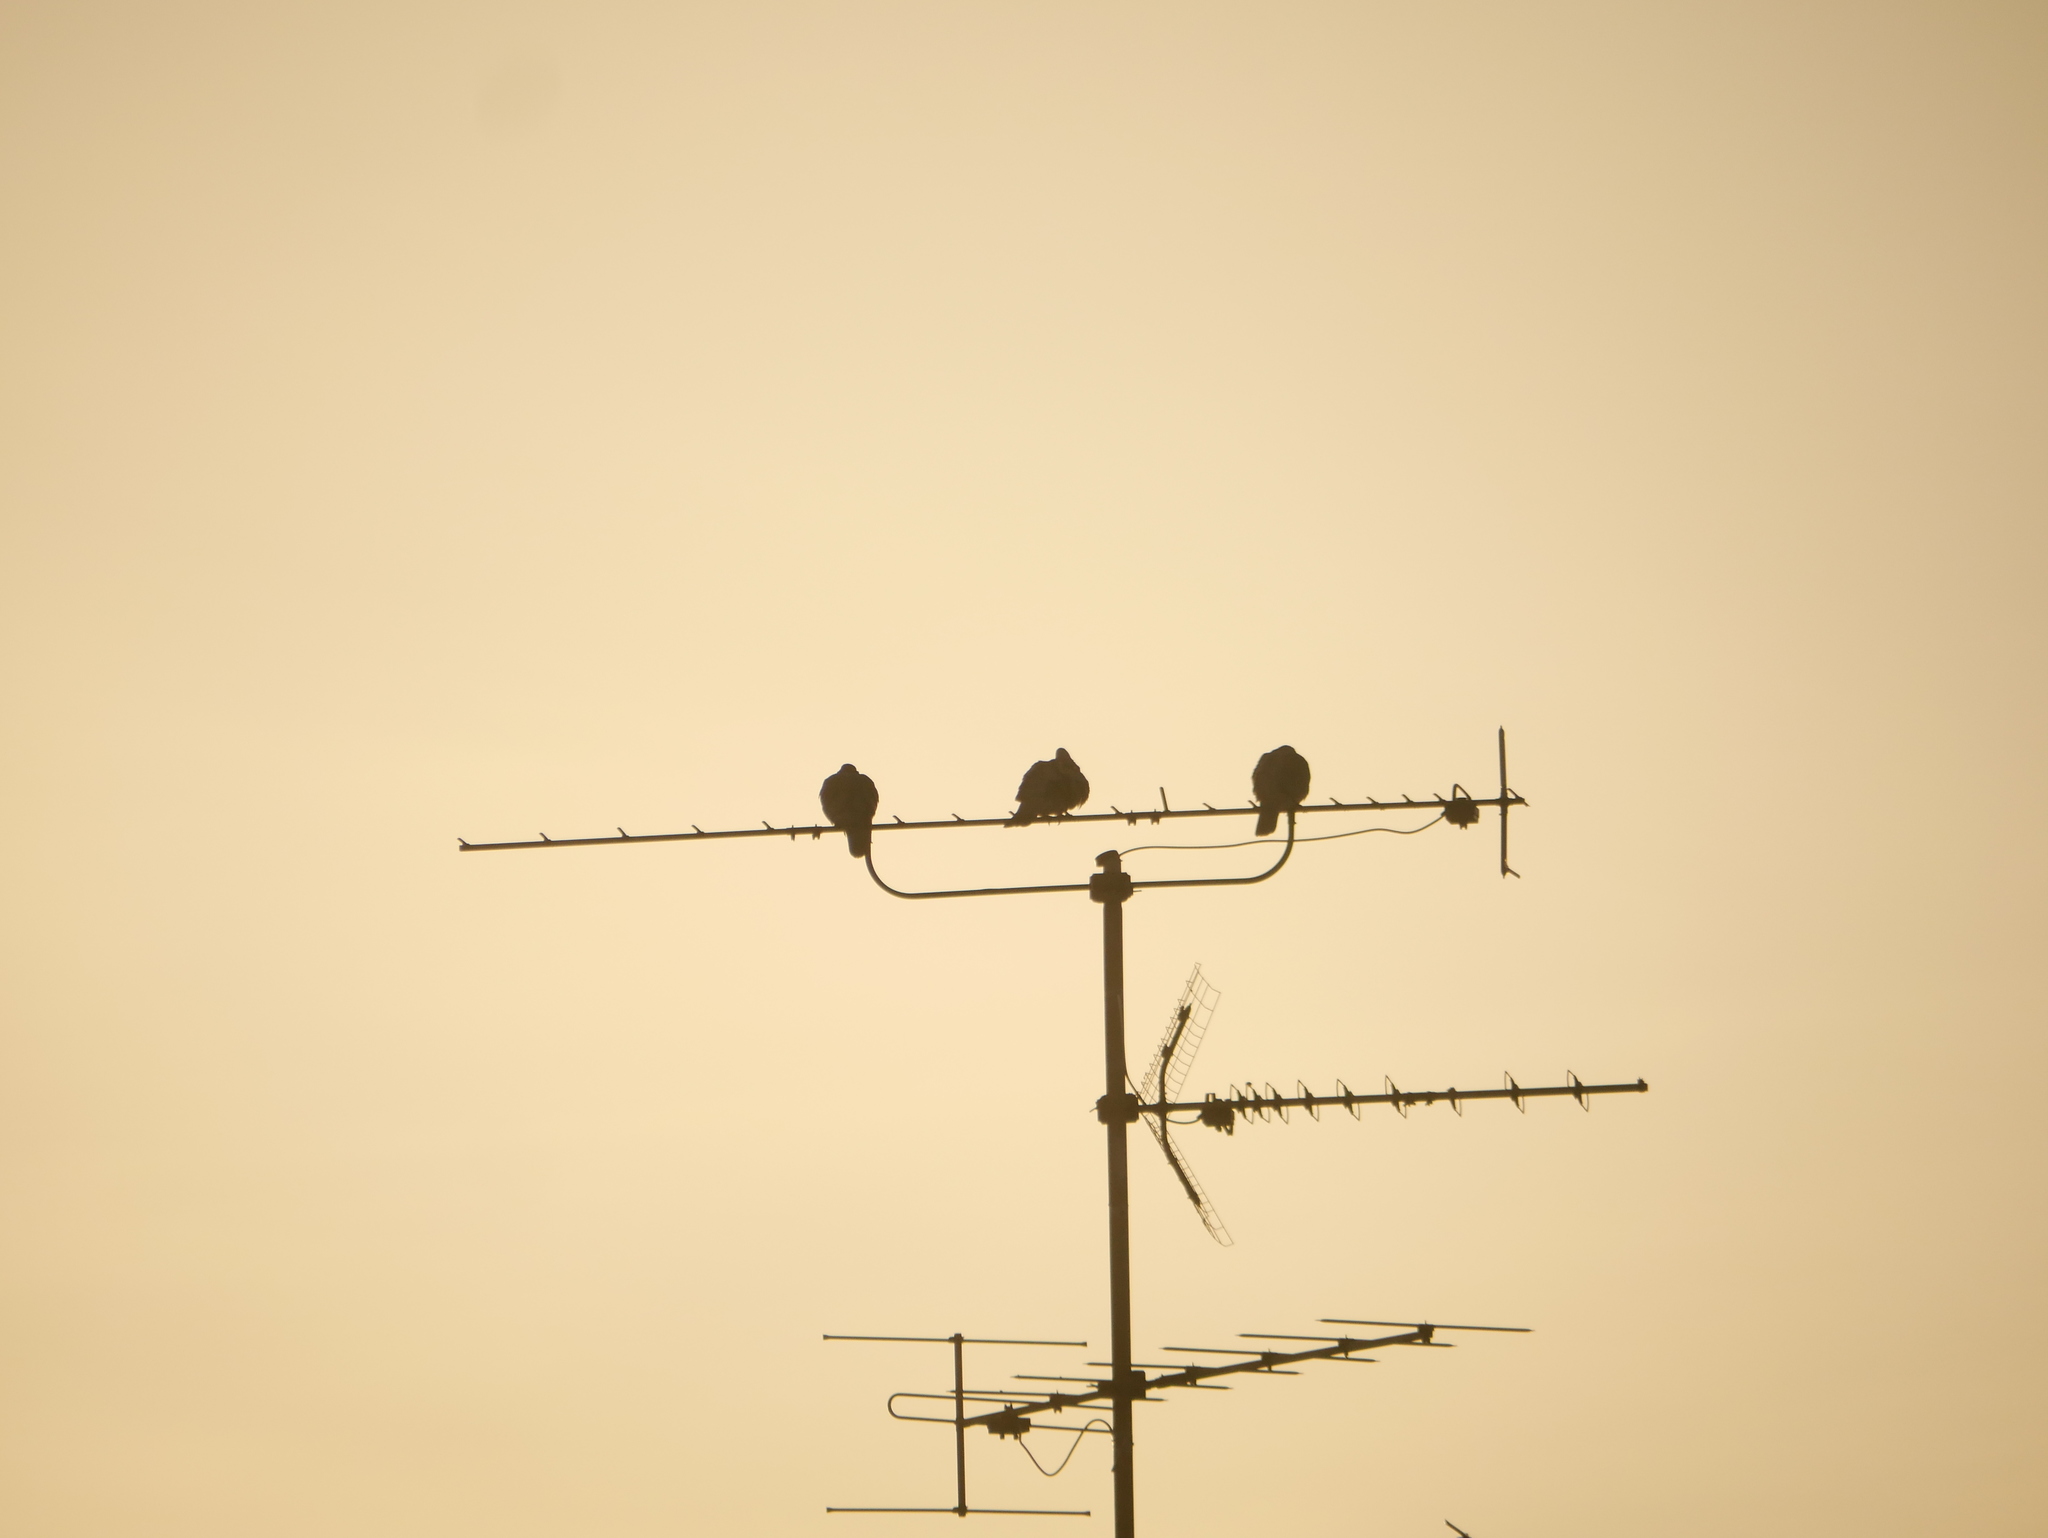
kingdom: Animalia
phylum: Chordata
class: Aves
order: Columbiformes
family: Columbidae
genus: Columba
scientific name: Columba palumbus
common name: Common wood pigeon
